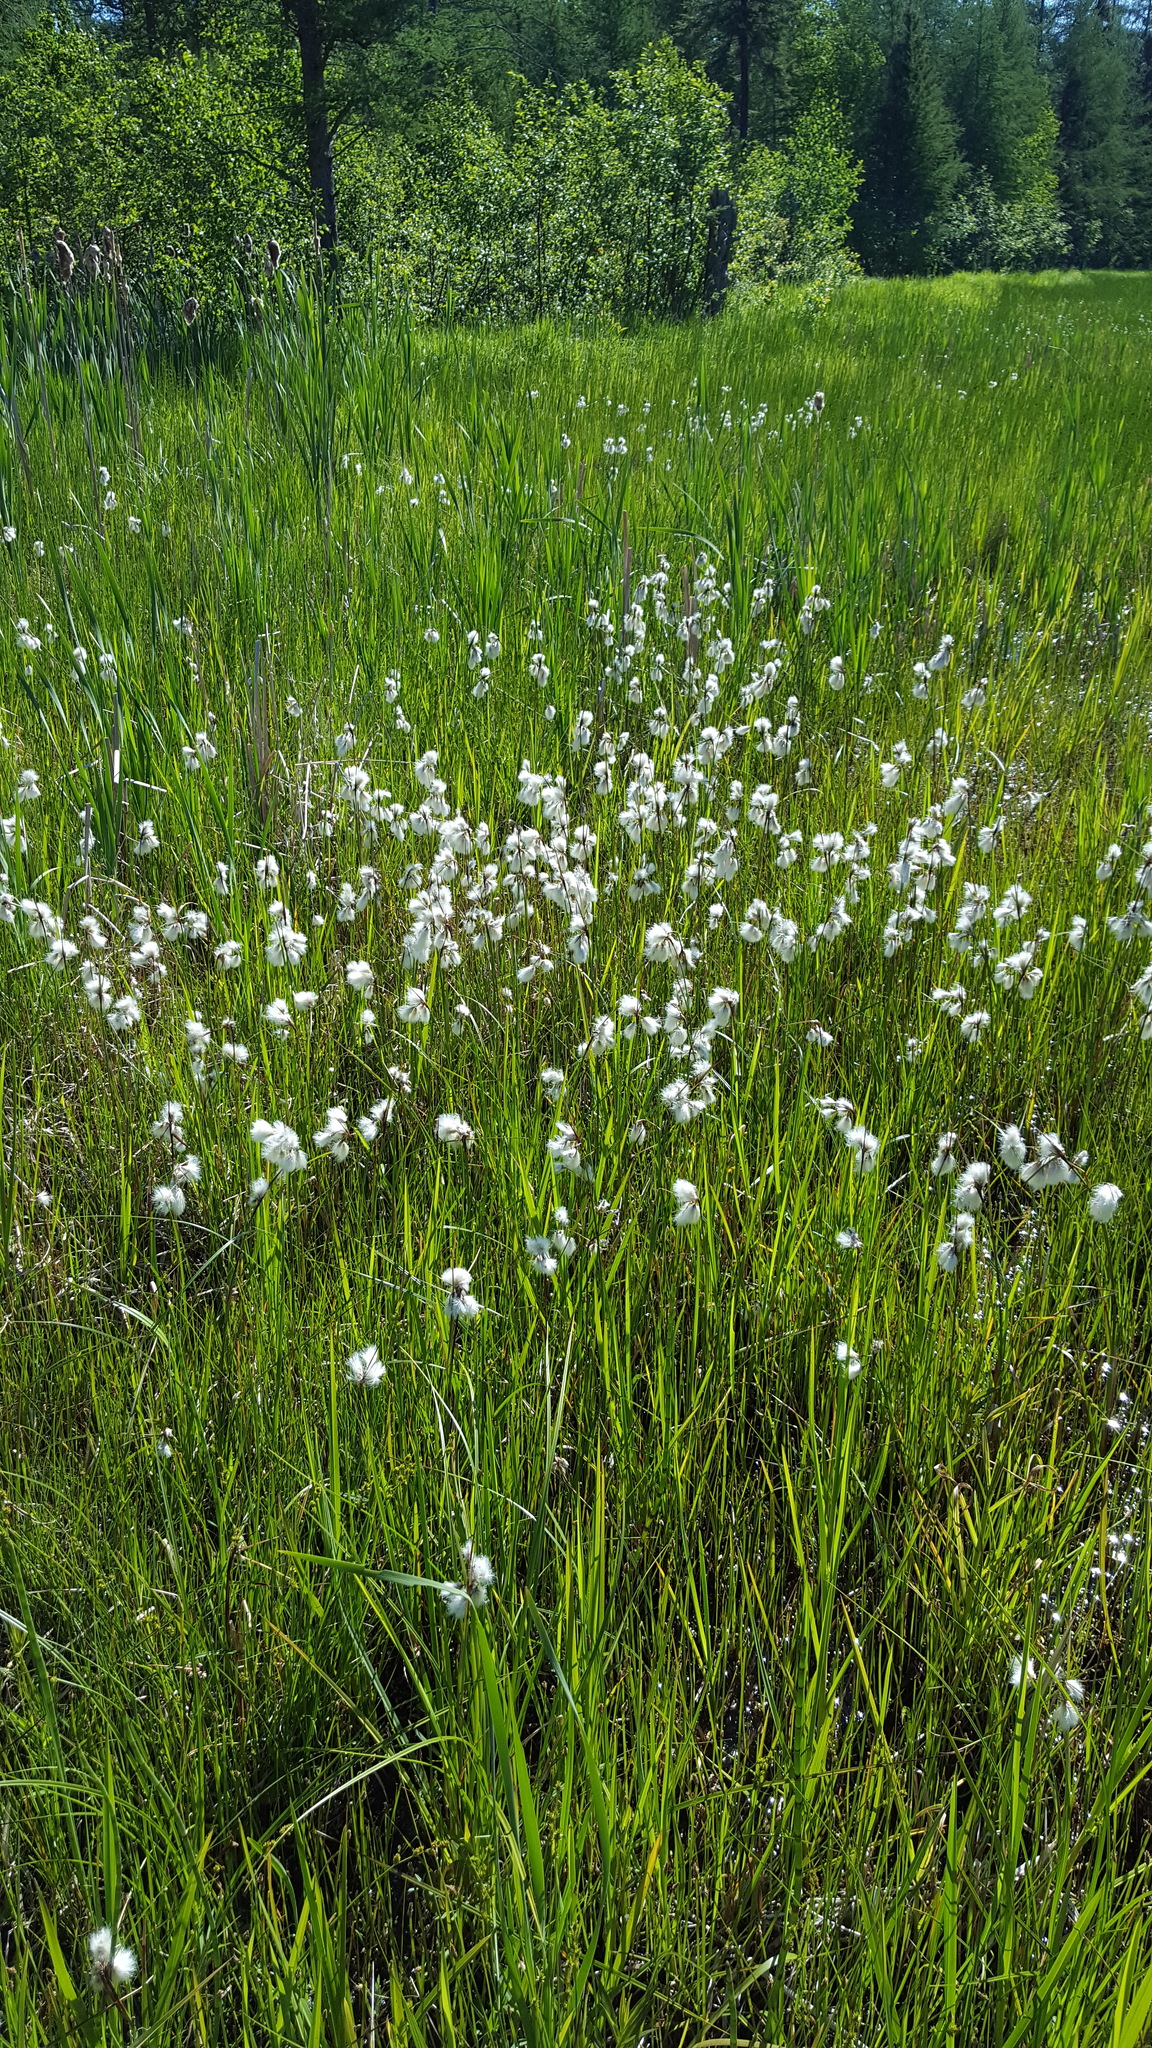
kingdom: Plantae
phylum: Tracheophyta
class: Liliopsida
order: Poales
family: Cyperaceae
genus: Eriophorum
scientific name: Eriophorum angustifolium
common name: Common cottongrass
